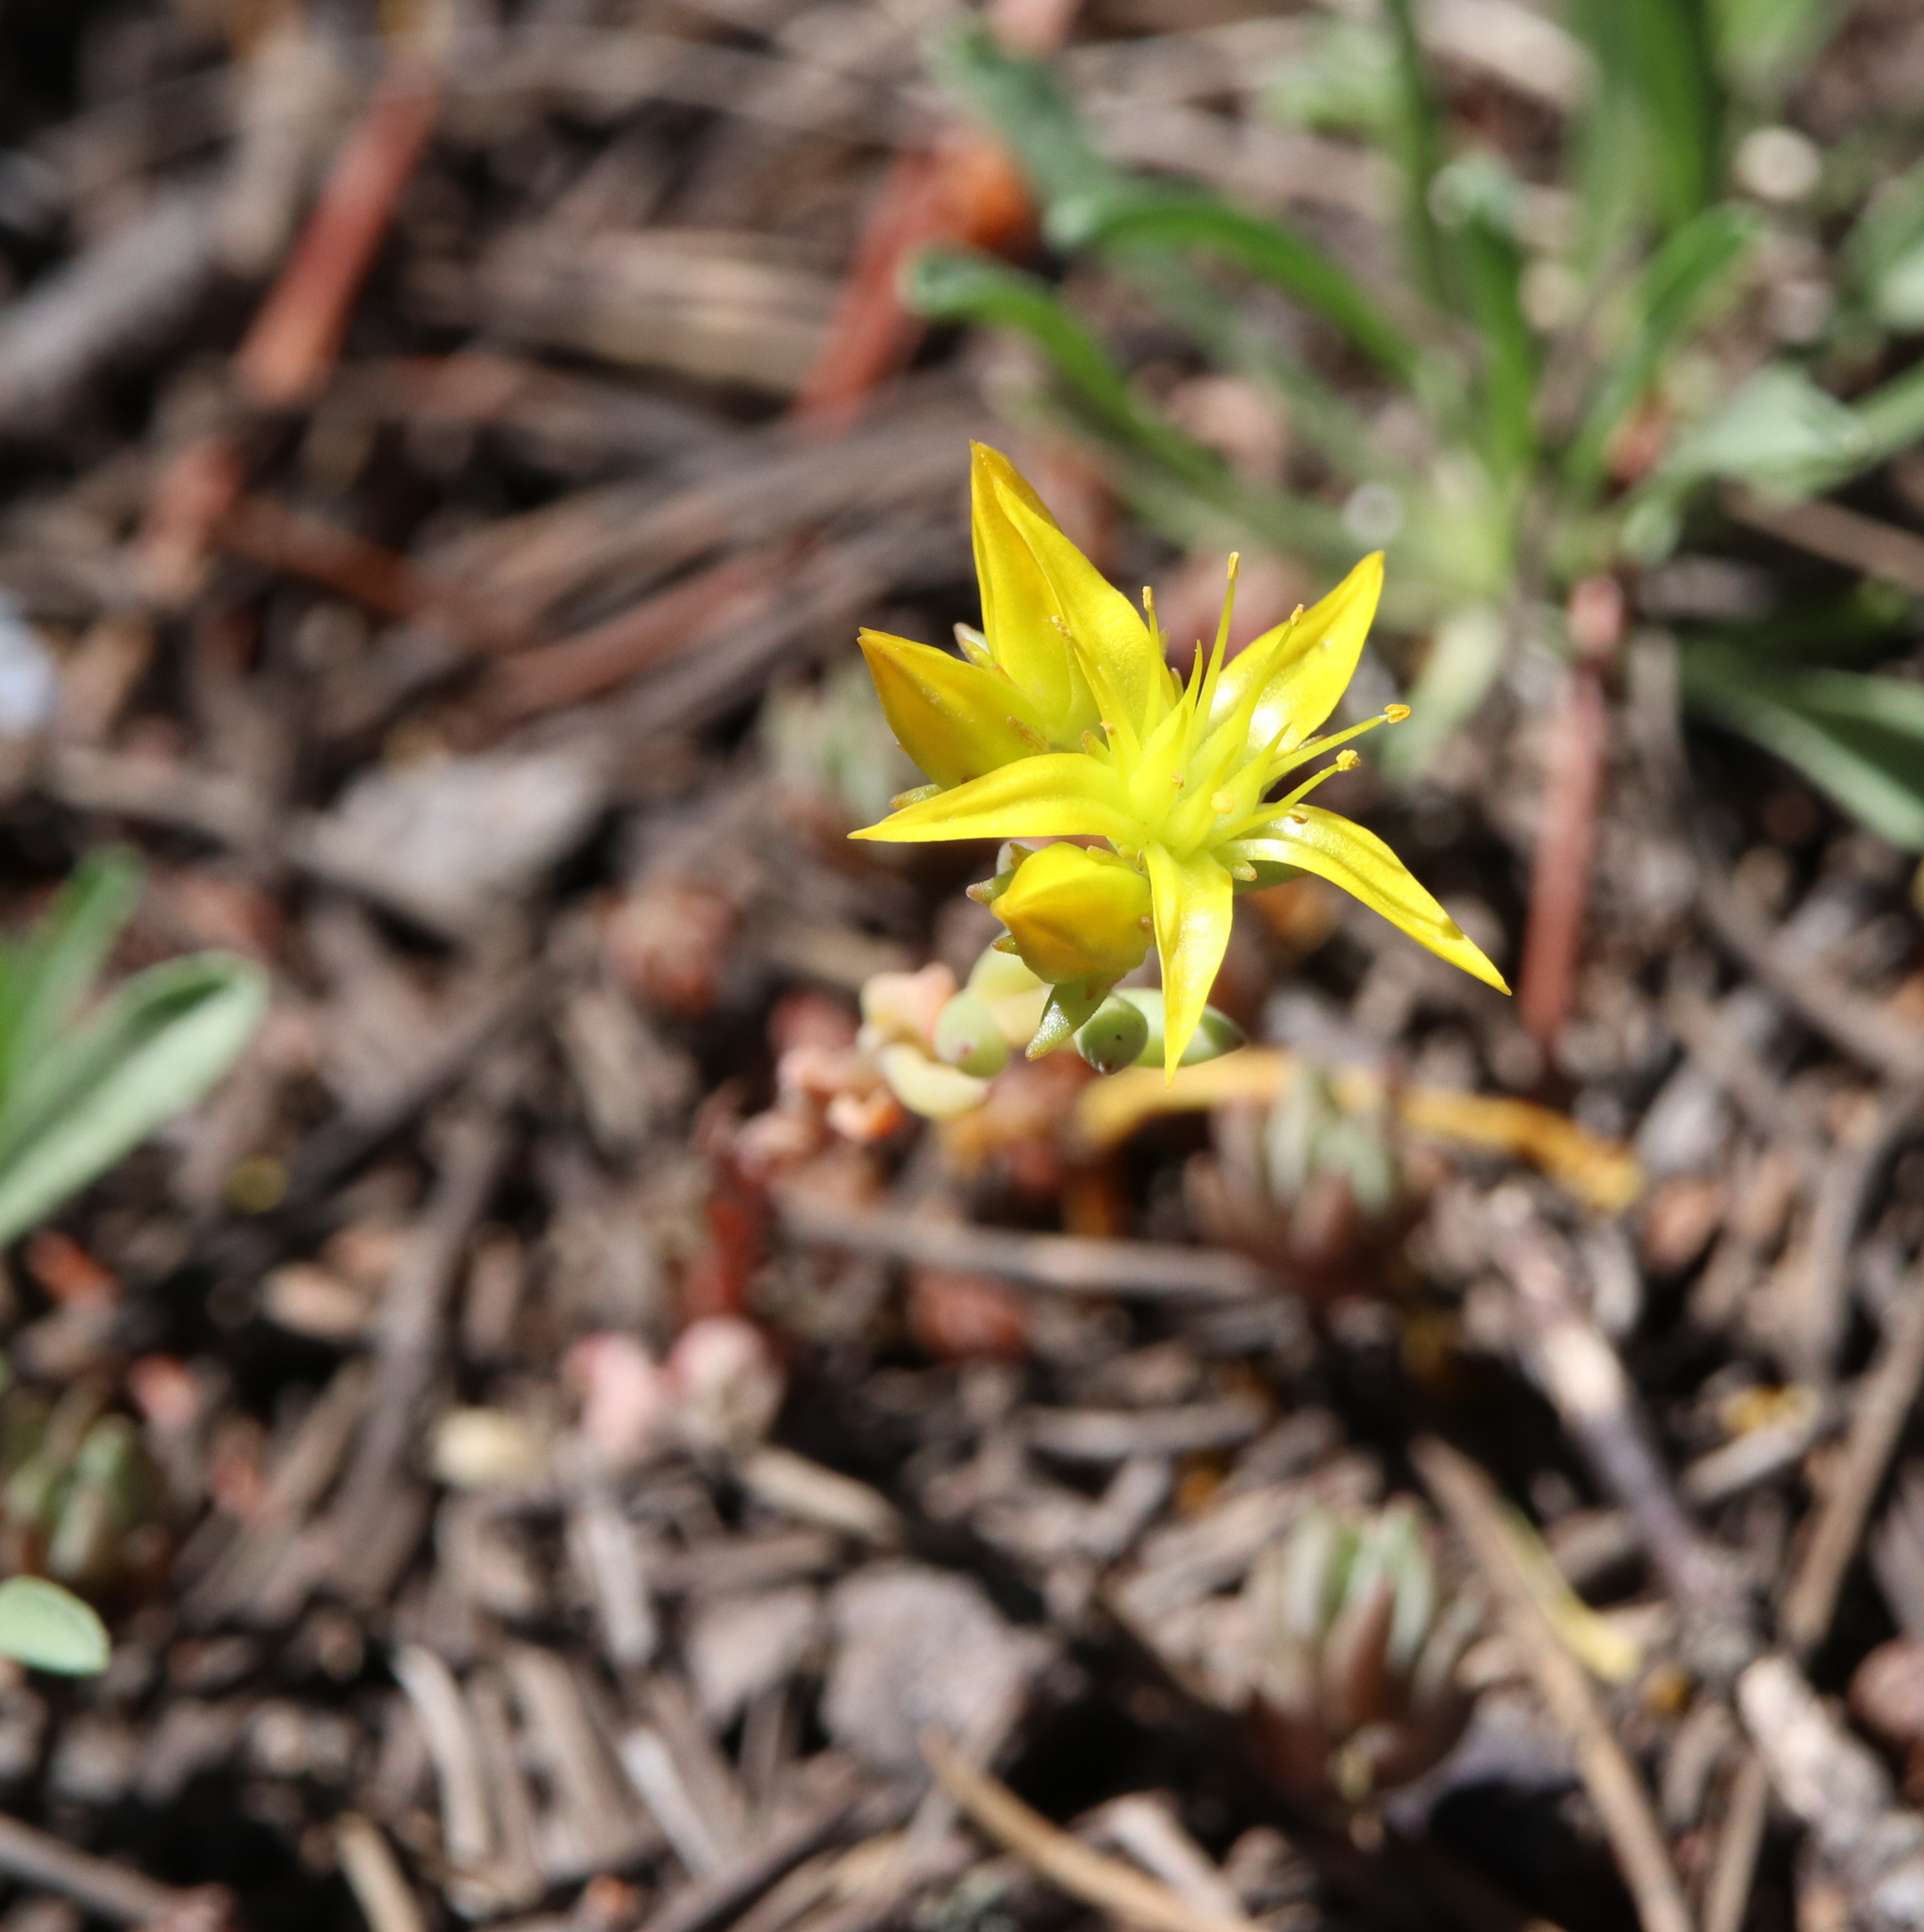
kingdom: Plantae
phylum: Tracheophyta
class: Magnoliopsida
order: Saxifragales
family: Crassulaceae
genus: Sedum
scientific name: Sedum lanceolatum
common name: Common stonecrop
